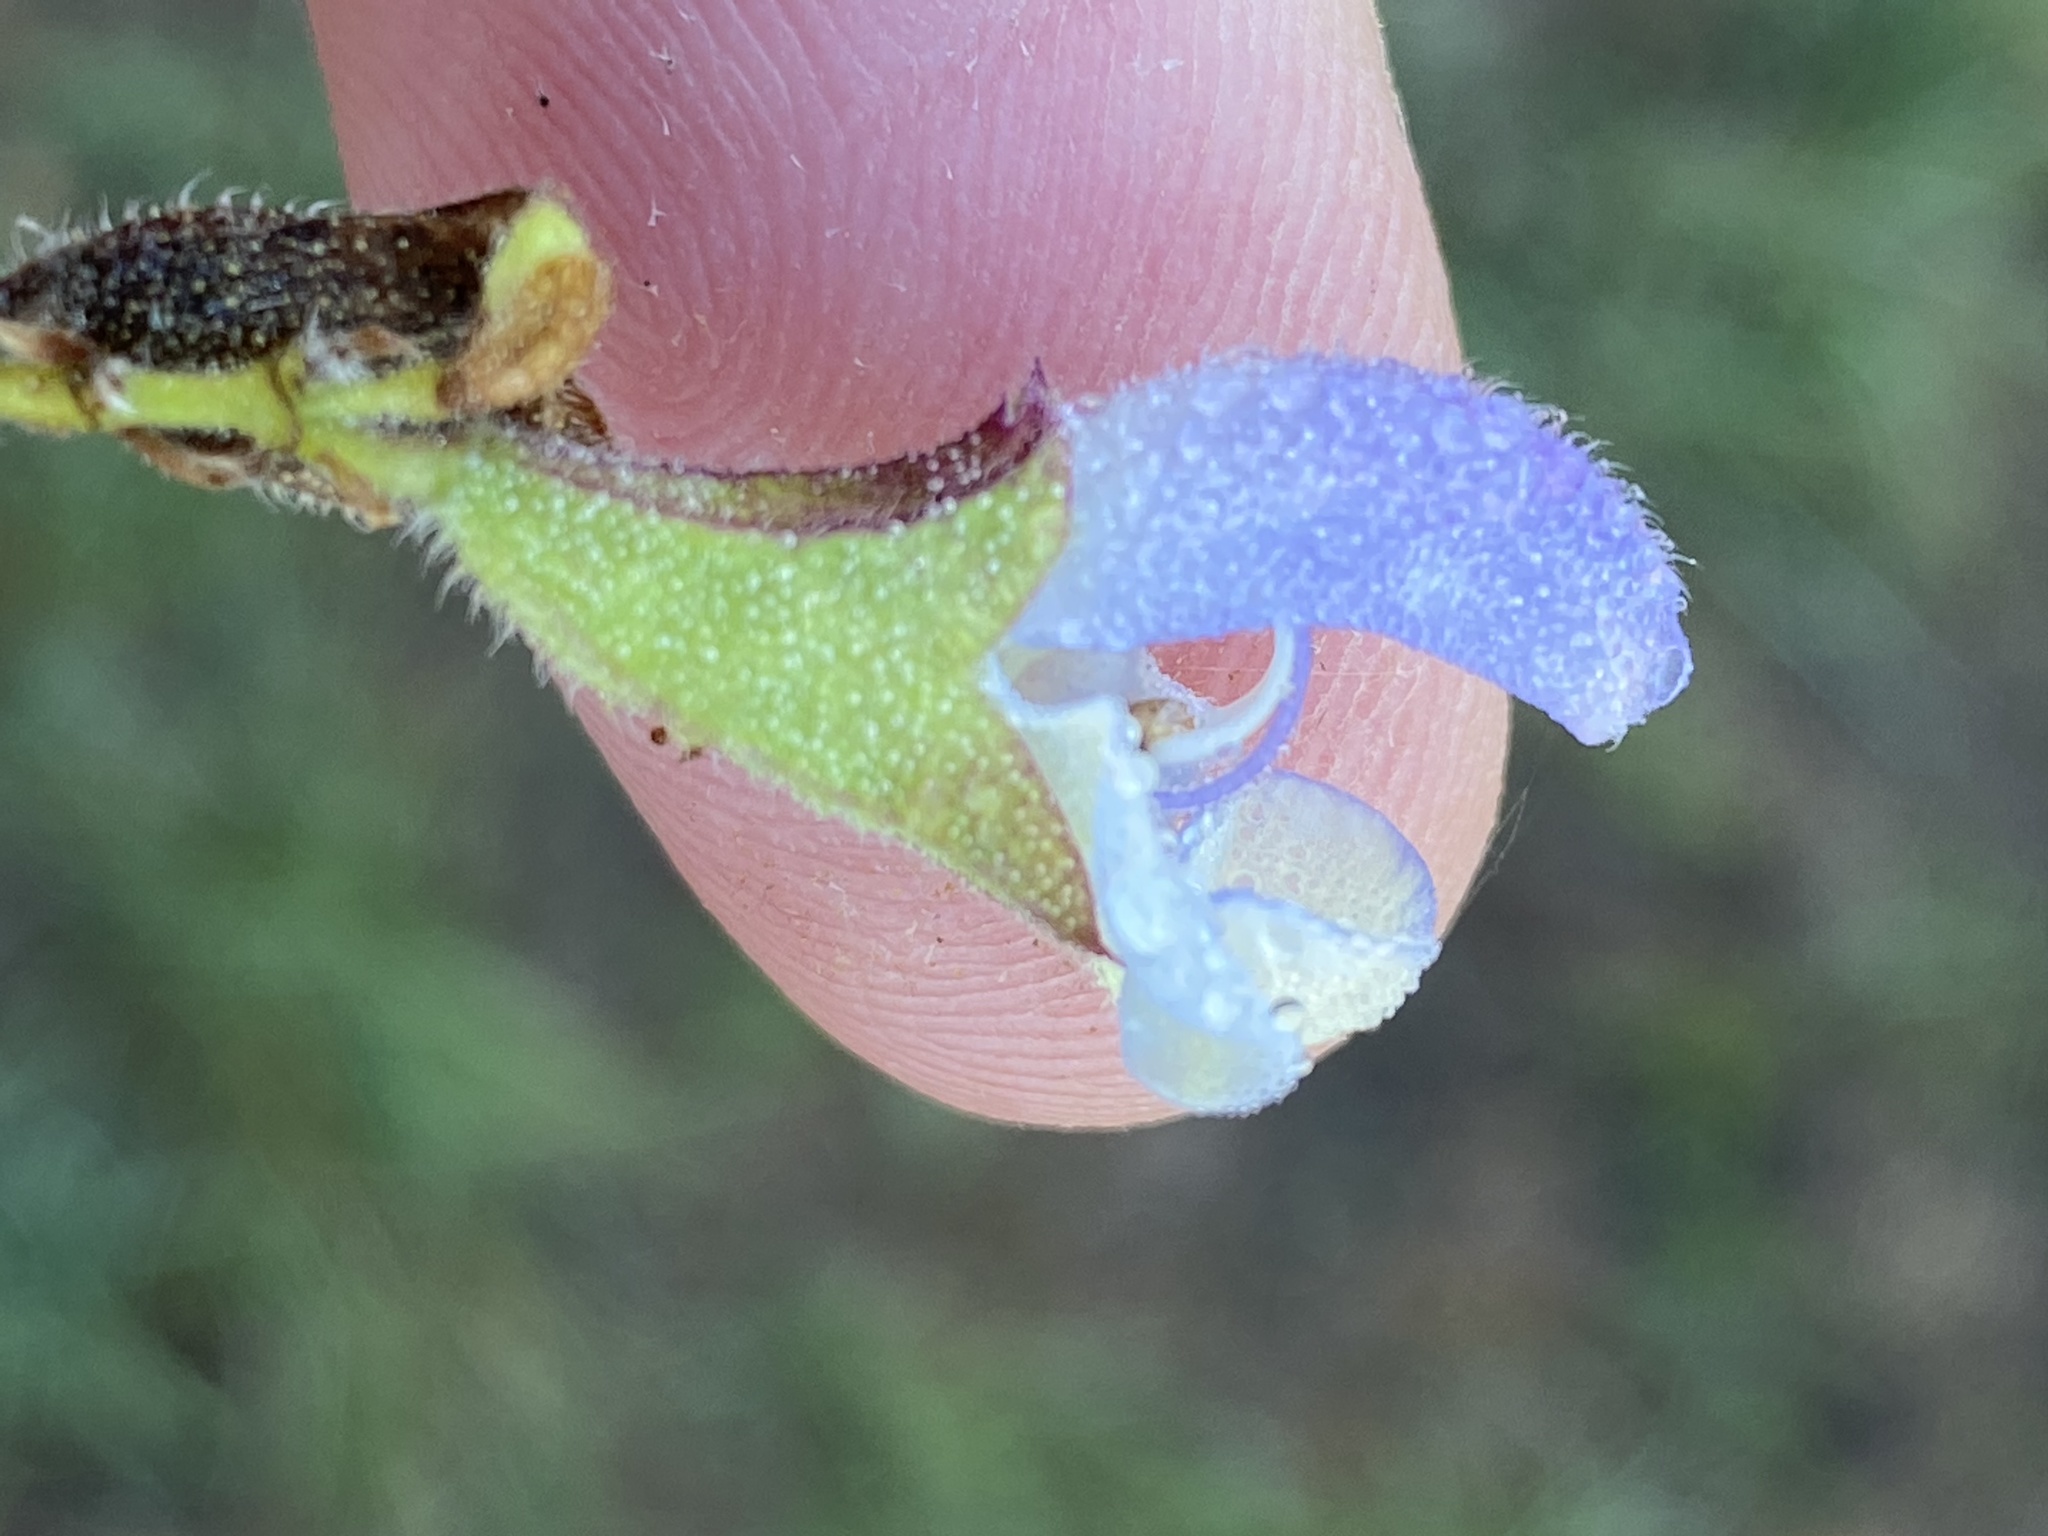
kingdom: Plantae
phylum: Tracheophyta
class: Magnoliopsida
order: Lamiales
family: Lamiaceae
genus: Salvia
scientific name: Salvia chamelaeagnea
